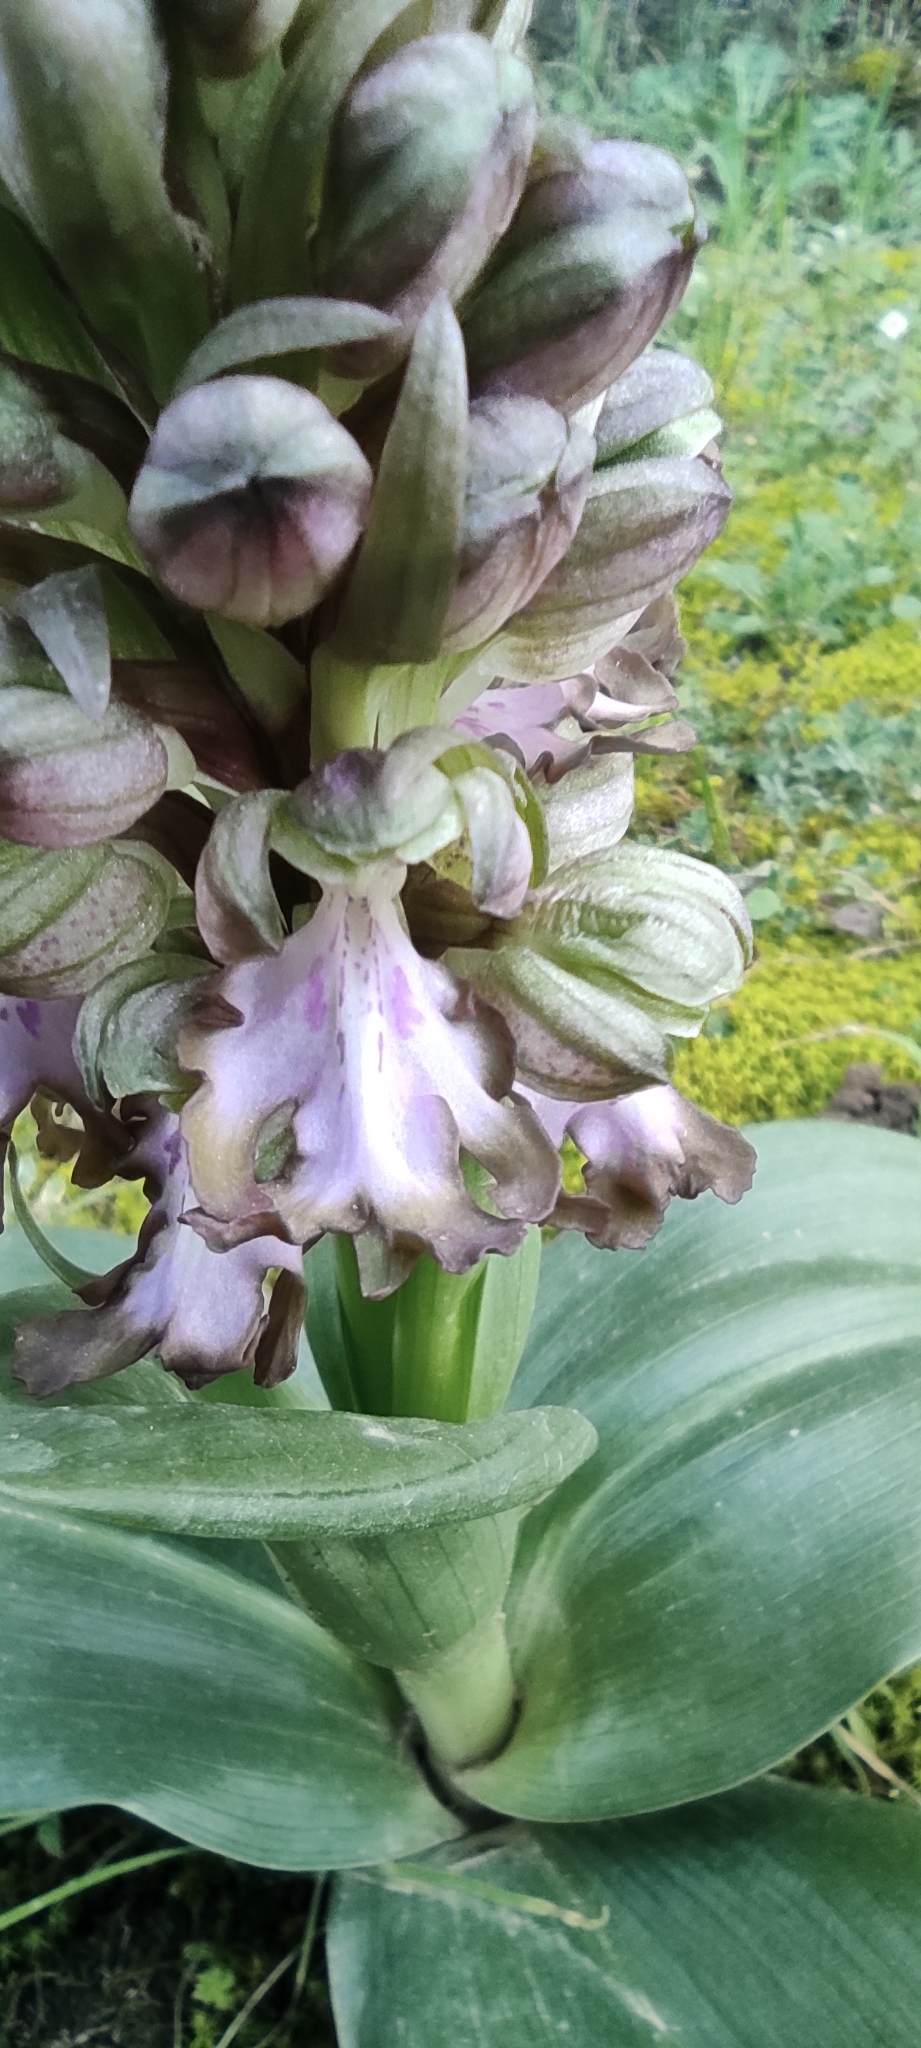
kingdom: Plantae
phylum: Tracheophyta
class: Liliopsida
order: Asparagales
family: Orchidaceae
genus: Himantoglossum
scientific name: Himantoglossum robertianum
